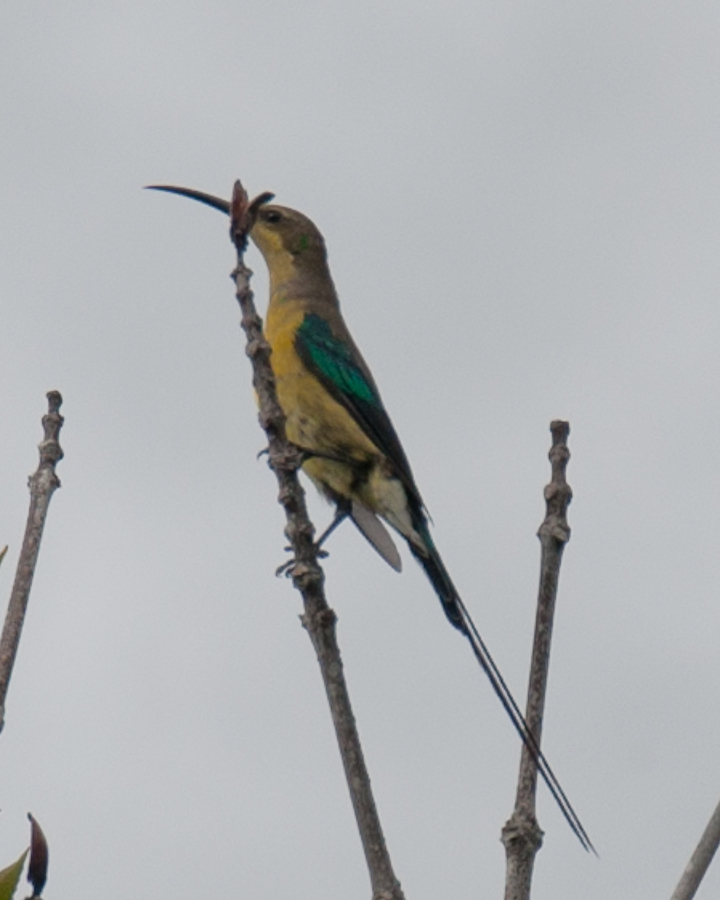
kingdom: Animalia
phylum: Chordata
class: Aves
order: Passeriformes
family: Nectariniidae
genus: Nectarinia
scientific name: Nectarinia famosa
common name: Malachite sunbird
